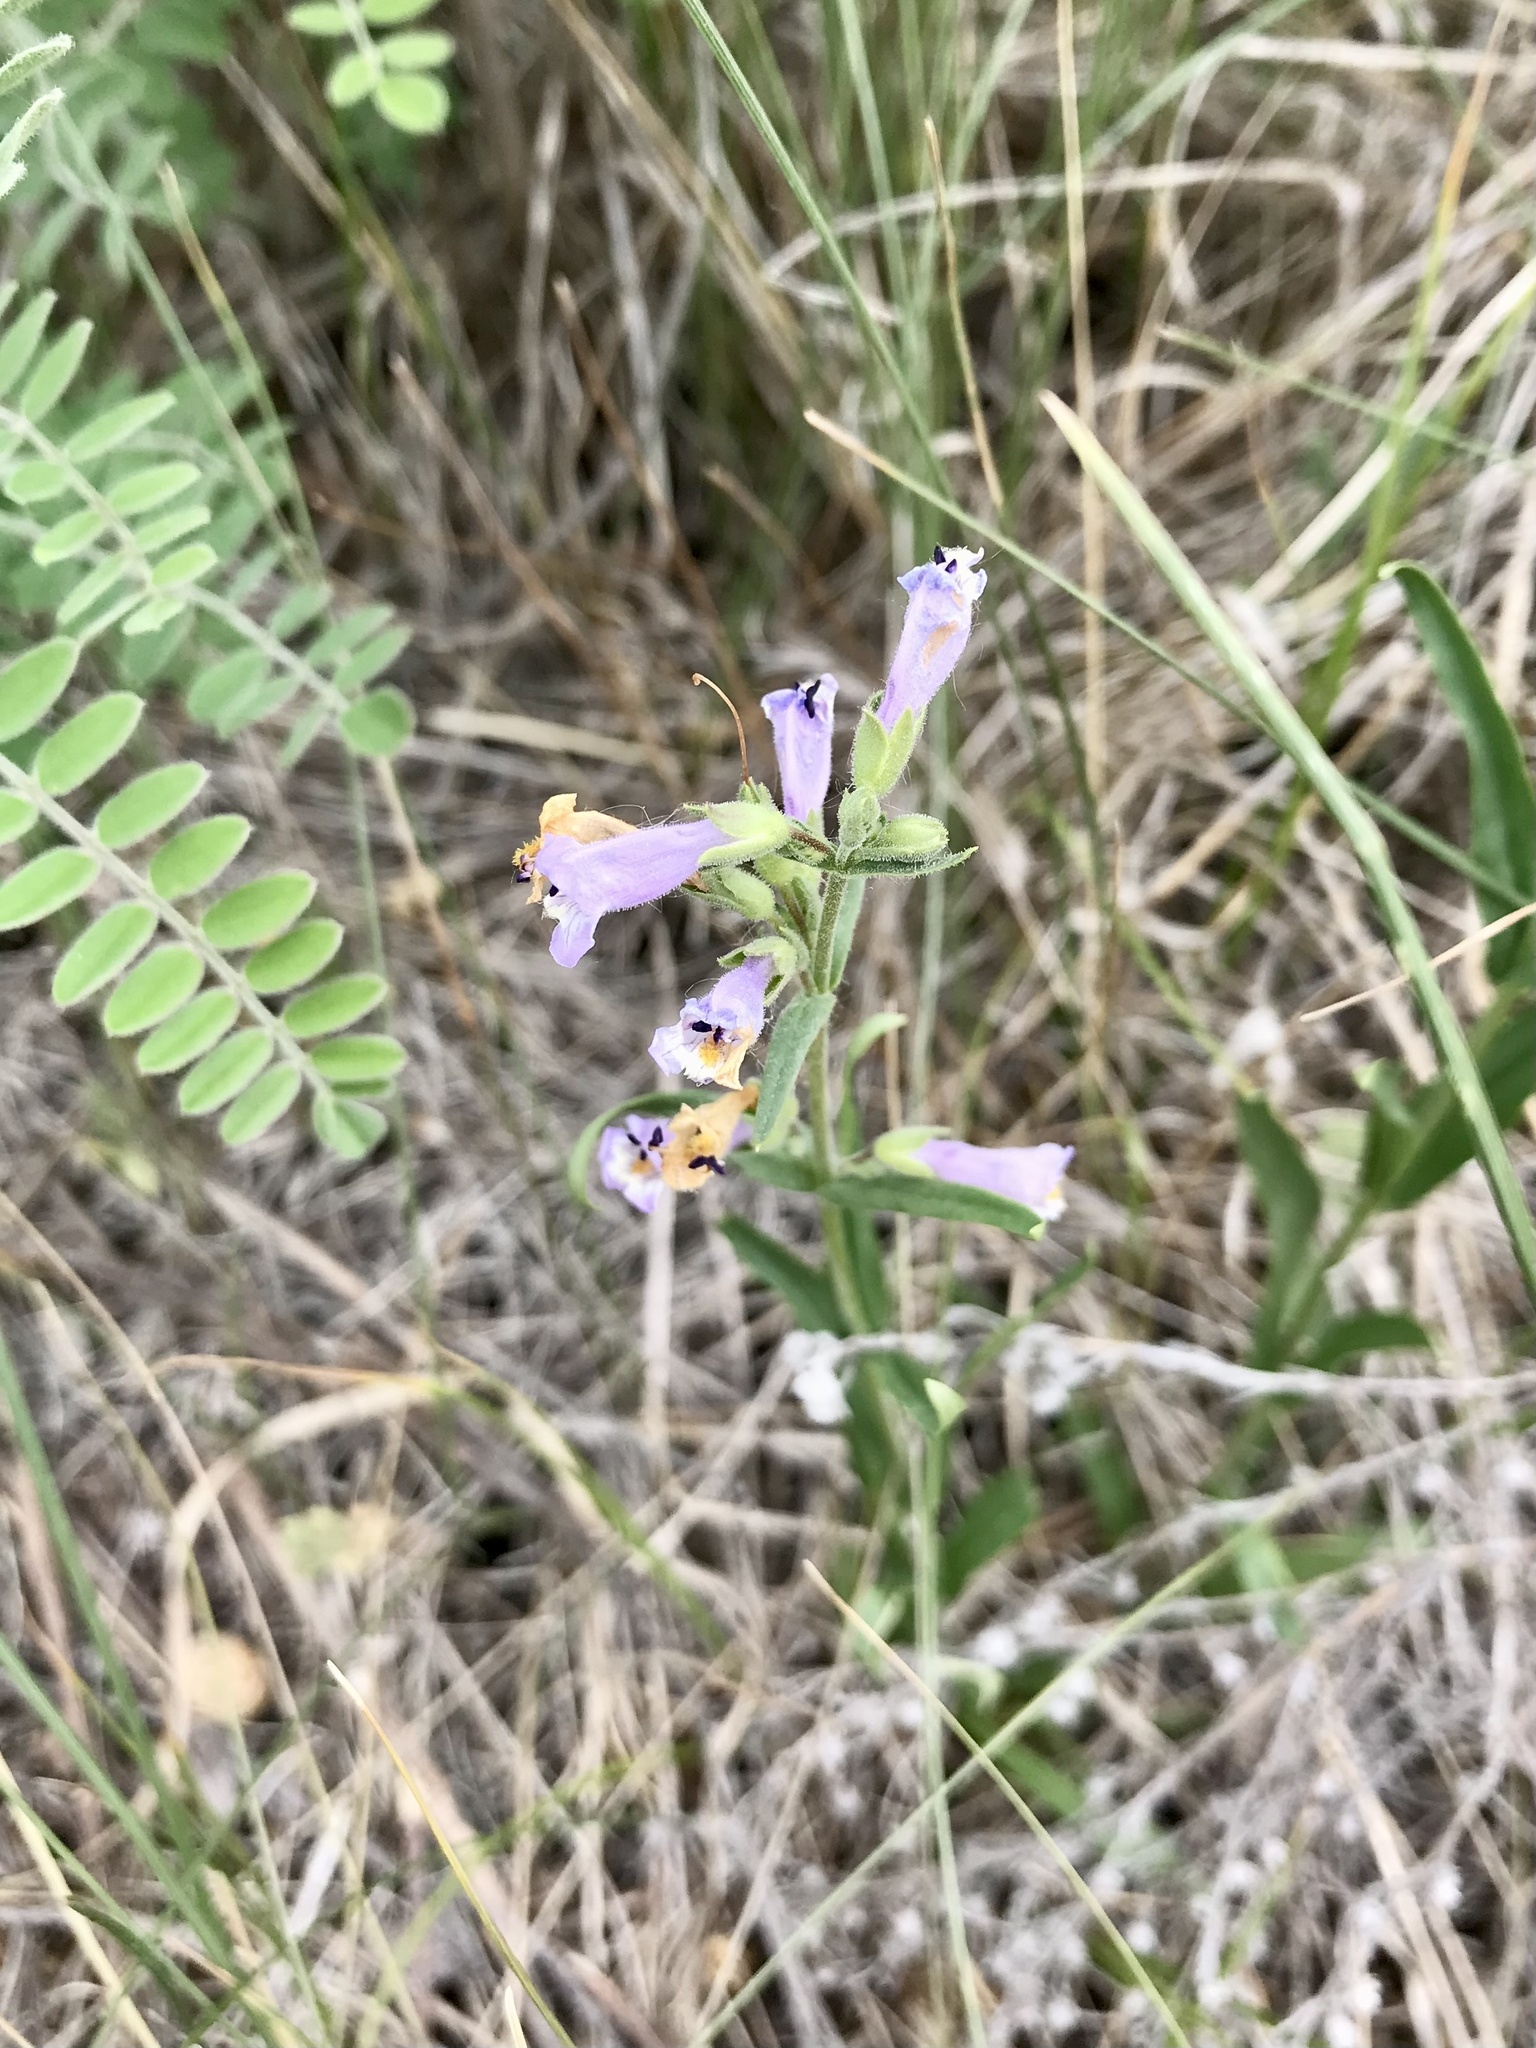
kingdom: Plantae
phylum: Tracheophyta
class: Magnoliopsida
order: Lamiales
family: Plantaginaceae
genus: Penstemon
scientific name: Penstemon gracilis
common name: Slender beardtongue
